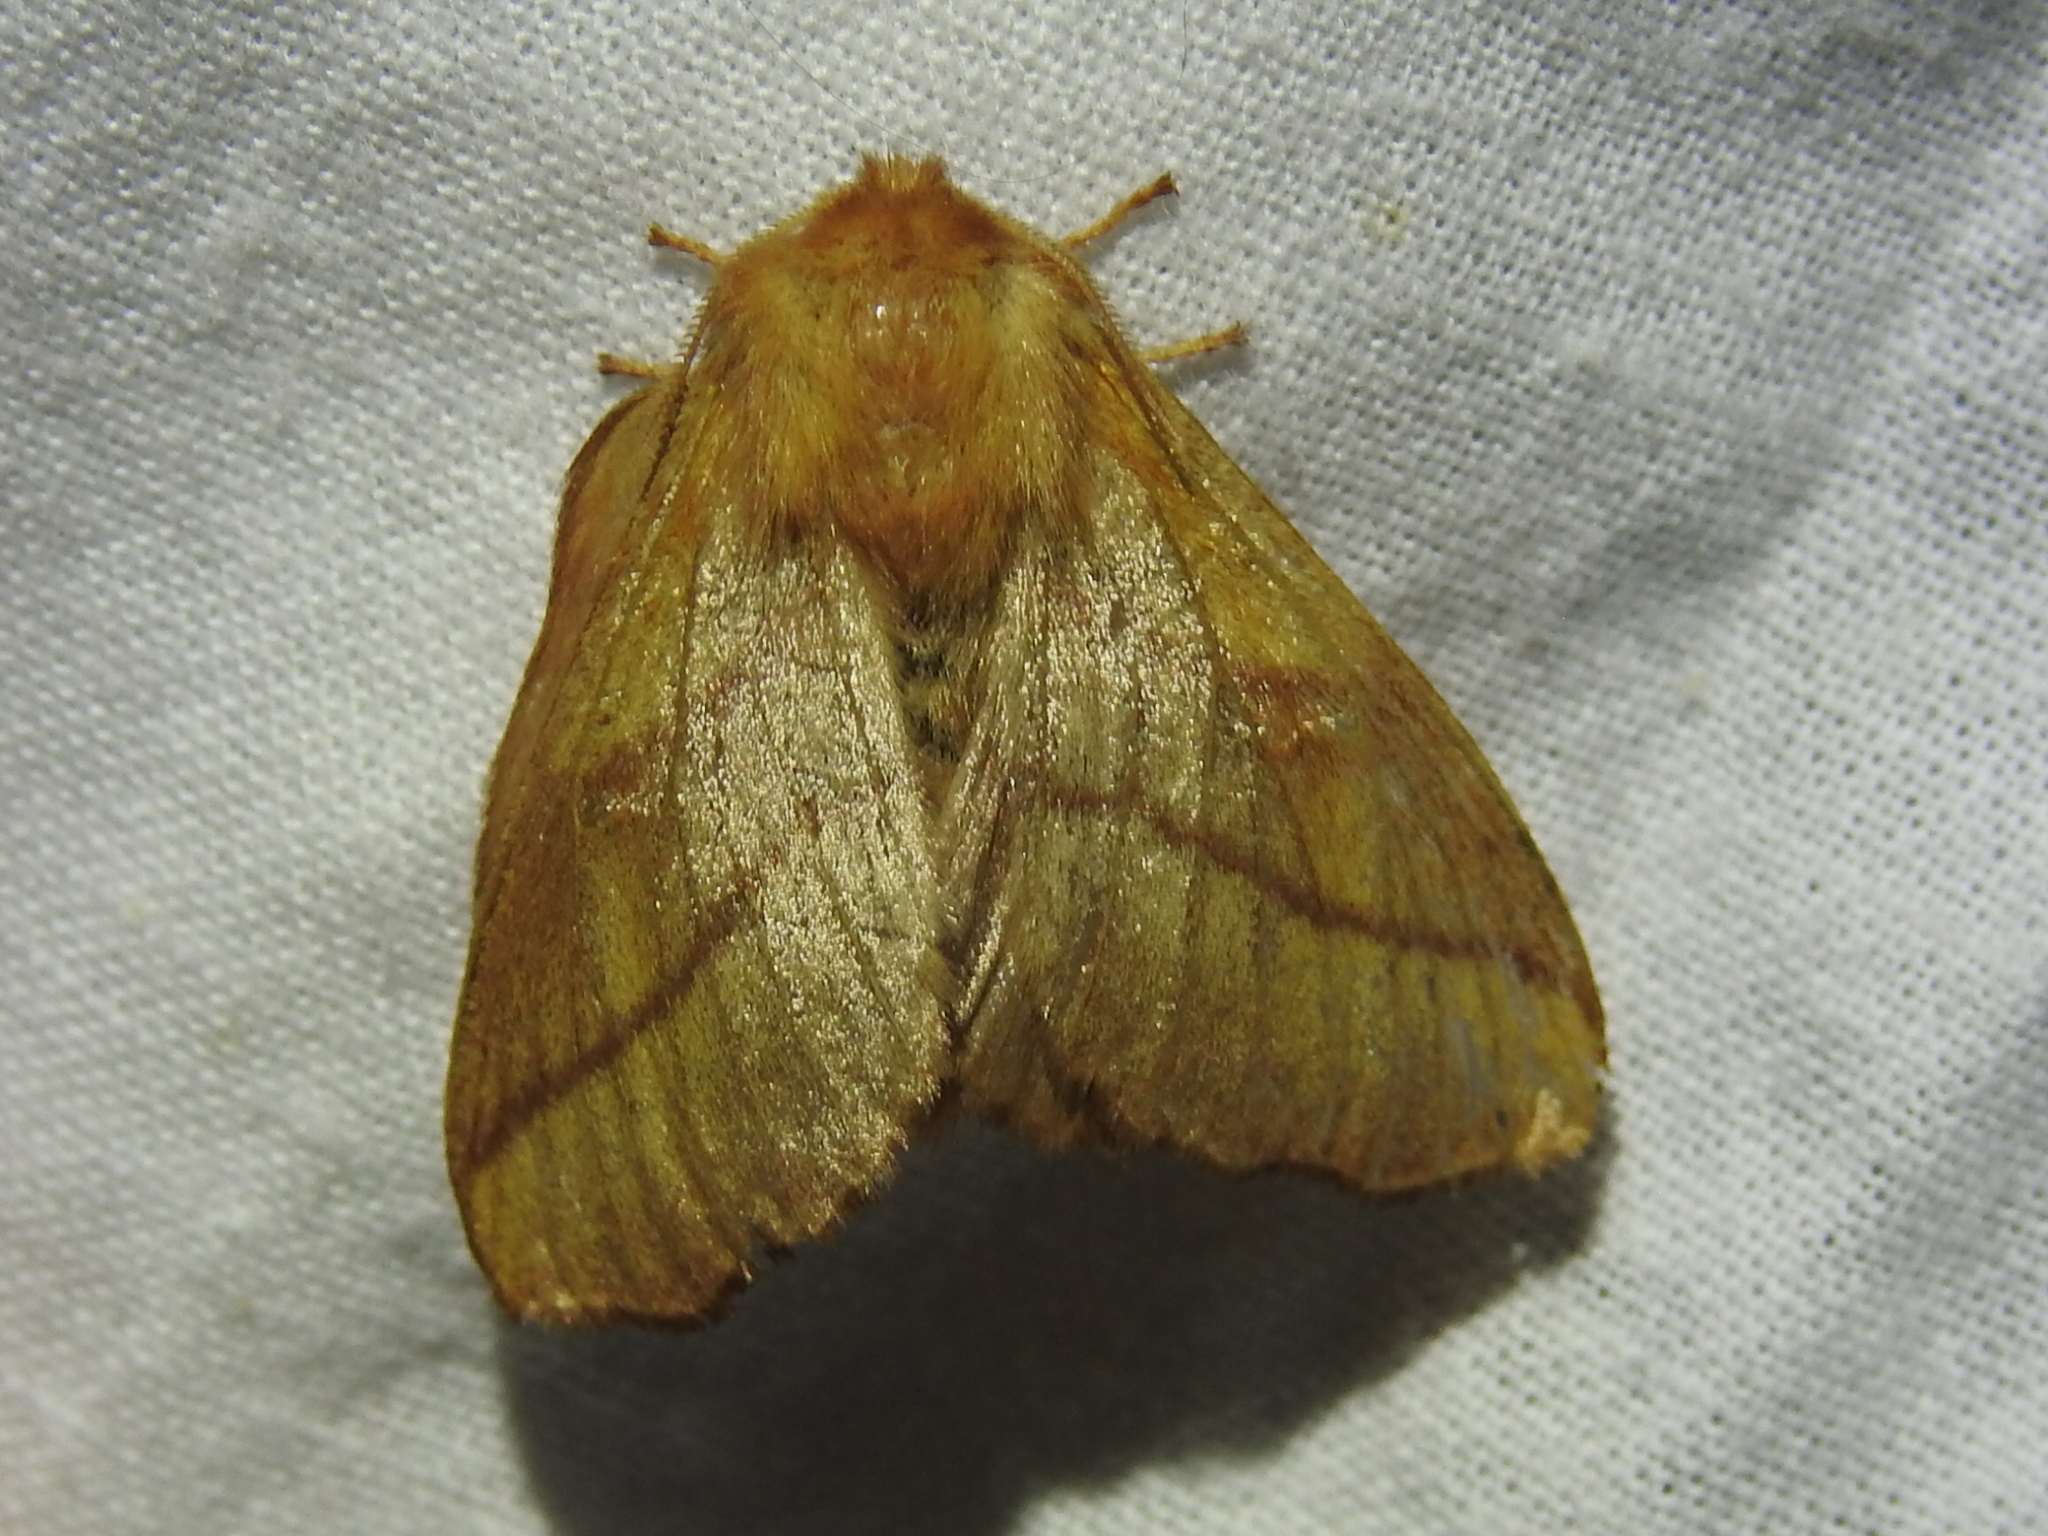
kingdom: Animalia
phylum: Arthropoda
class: Insecta
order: Lepidoptera
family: Lasiocampidae
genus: Malacosoma
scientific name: Malacosoma disstria
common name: Forest tent caterpillar
